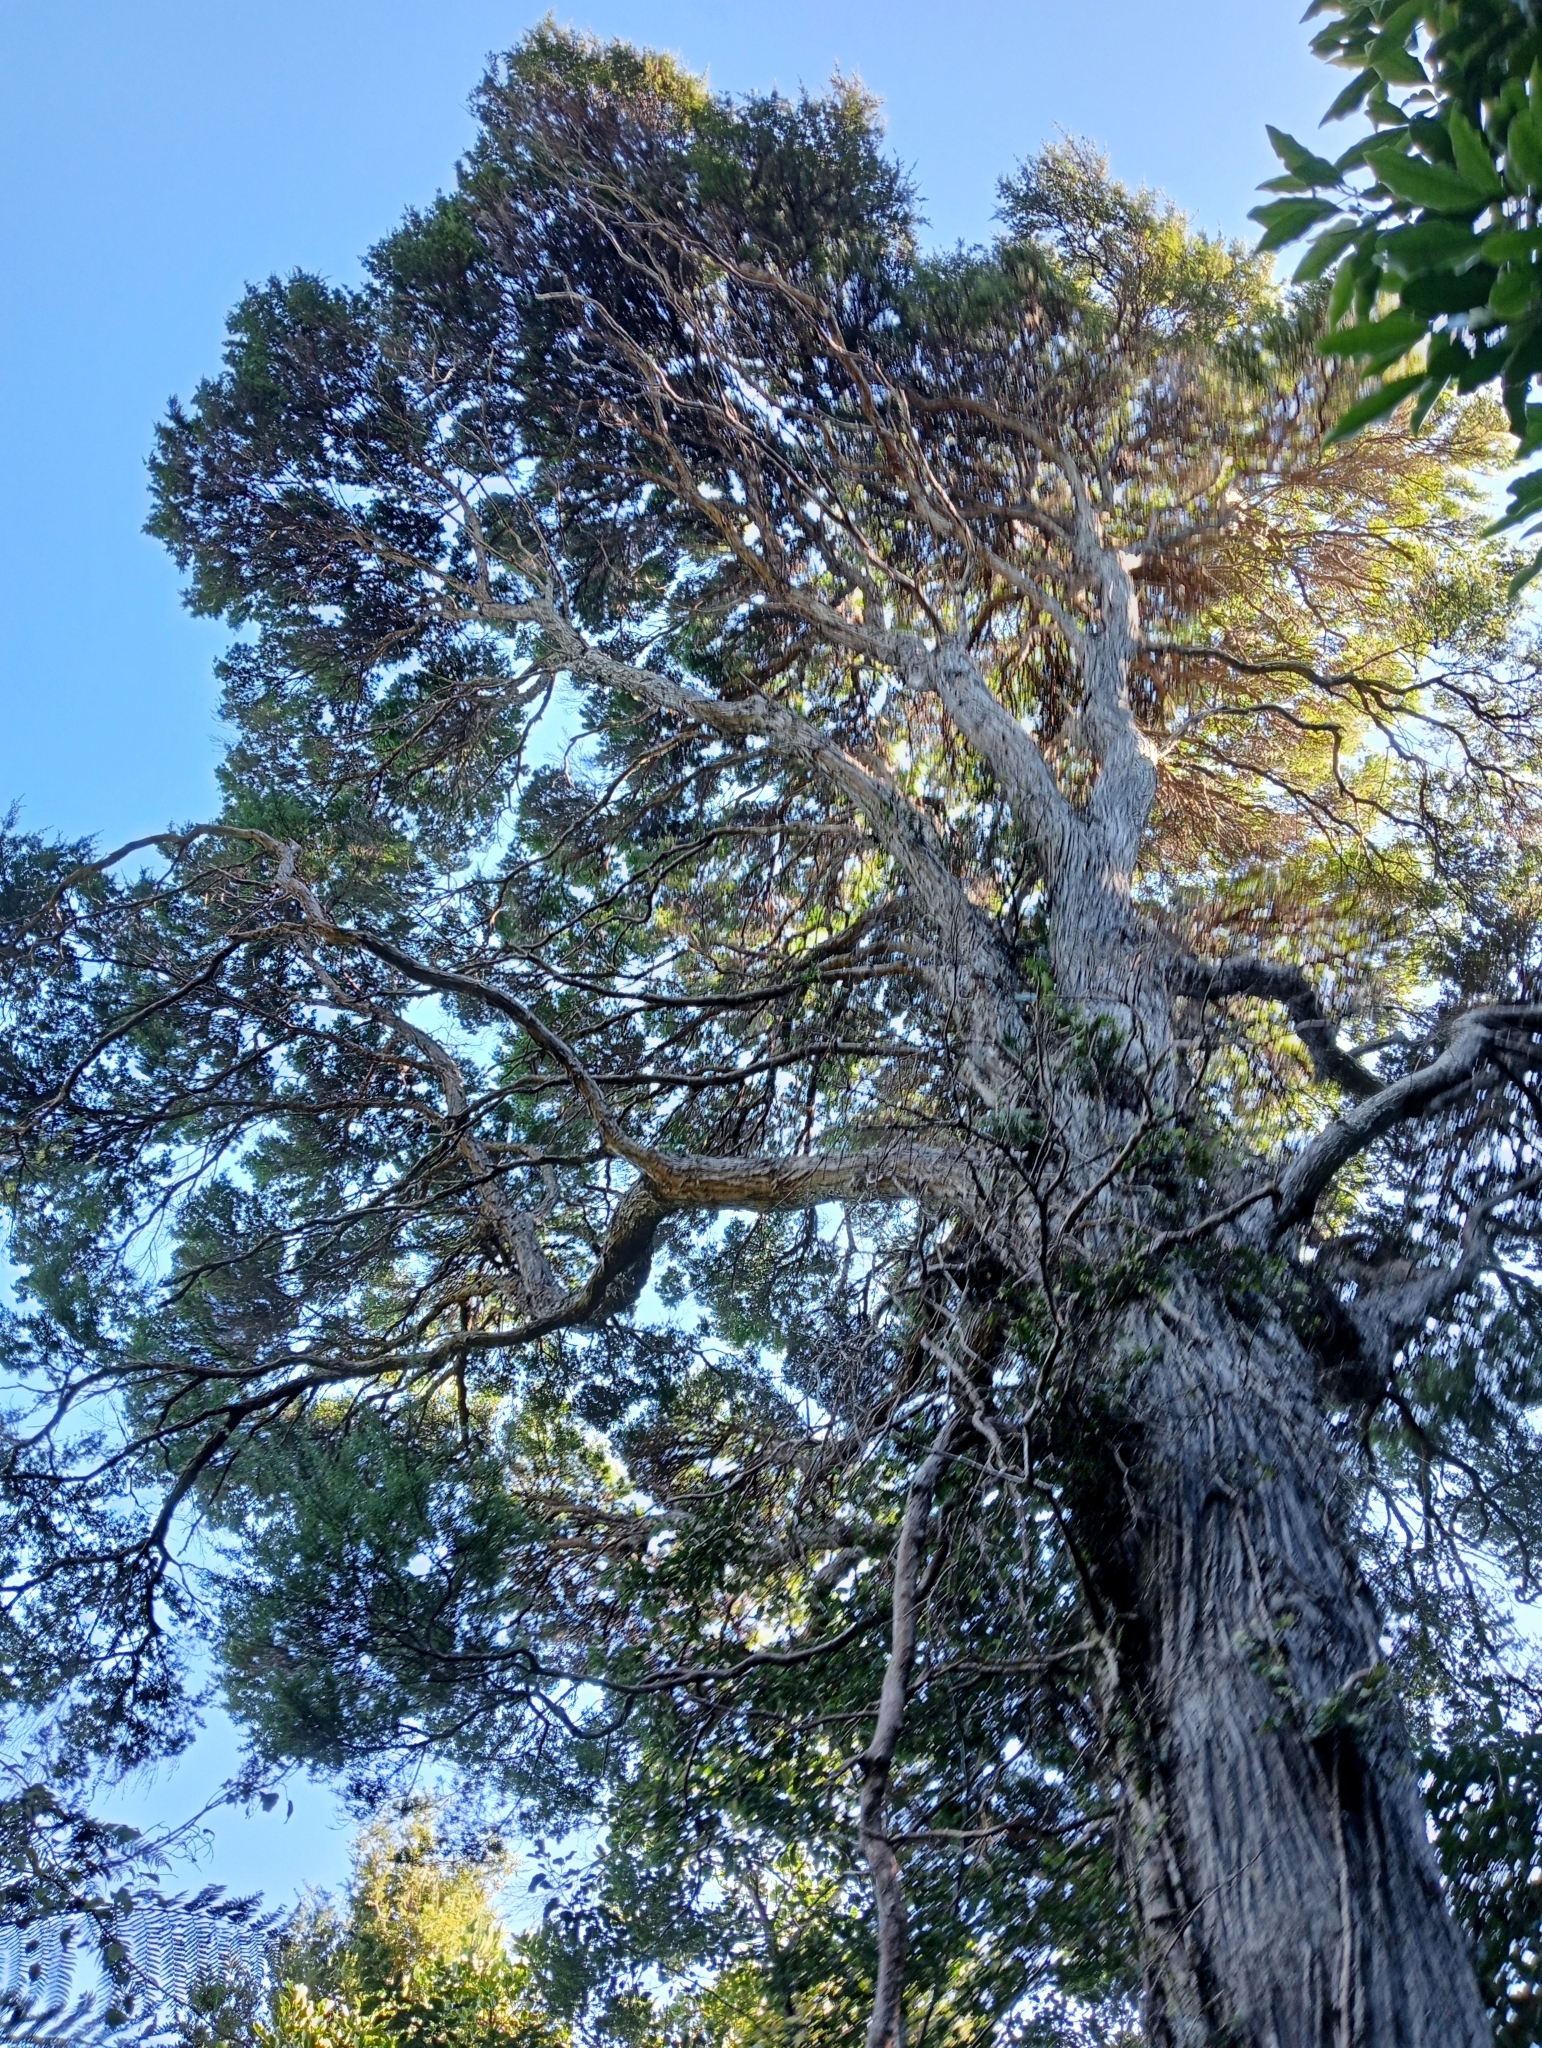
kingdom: Plantae
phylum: Tracheophyta
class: Magnoliopsida
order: Myrtales
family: Myrtaceae
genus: Kunzea
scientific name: Kunzea robusta
